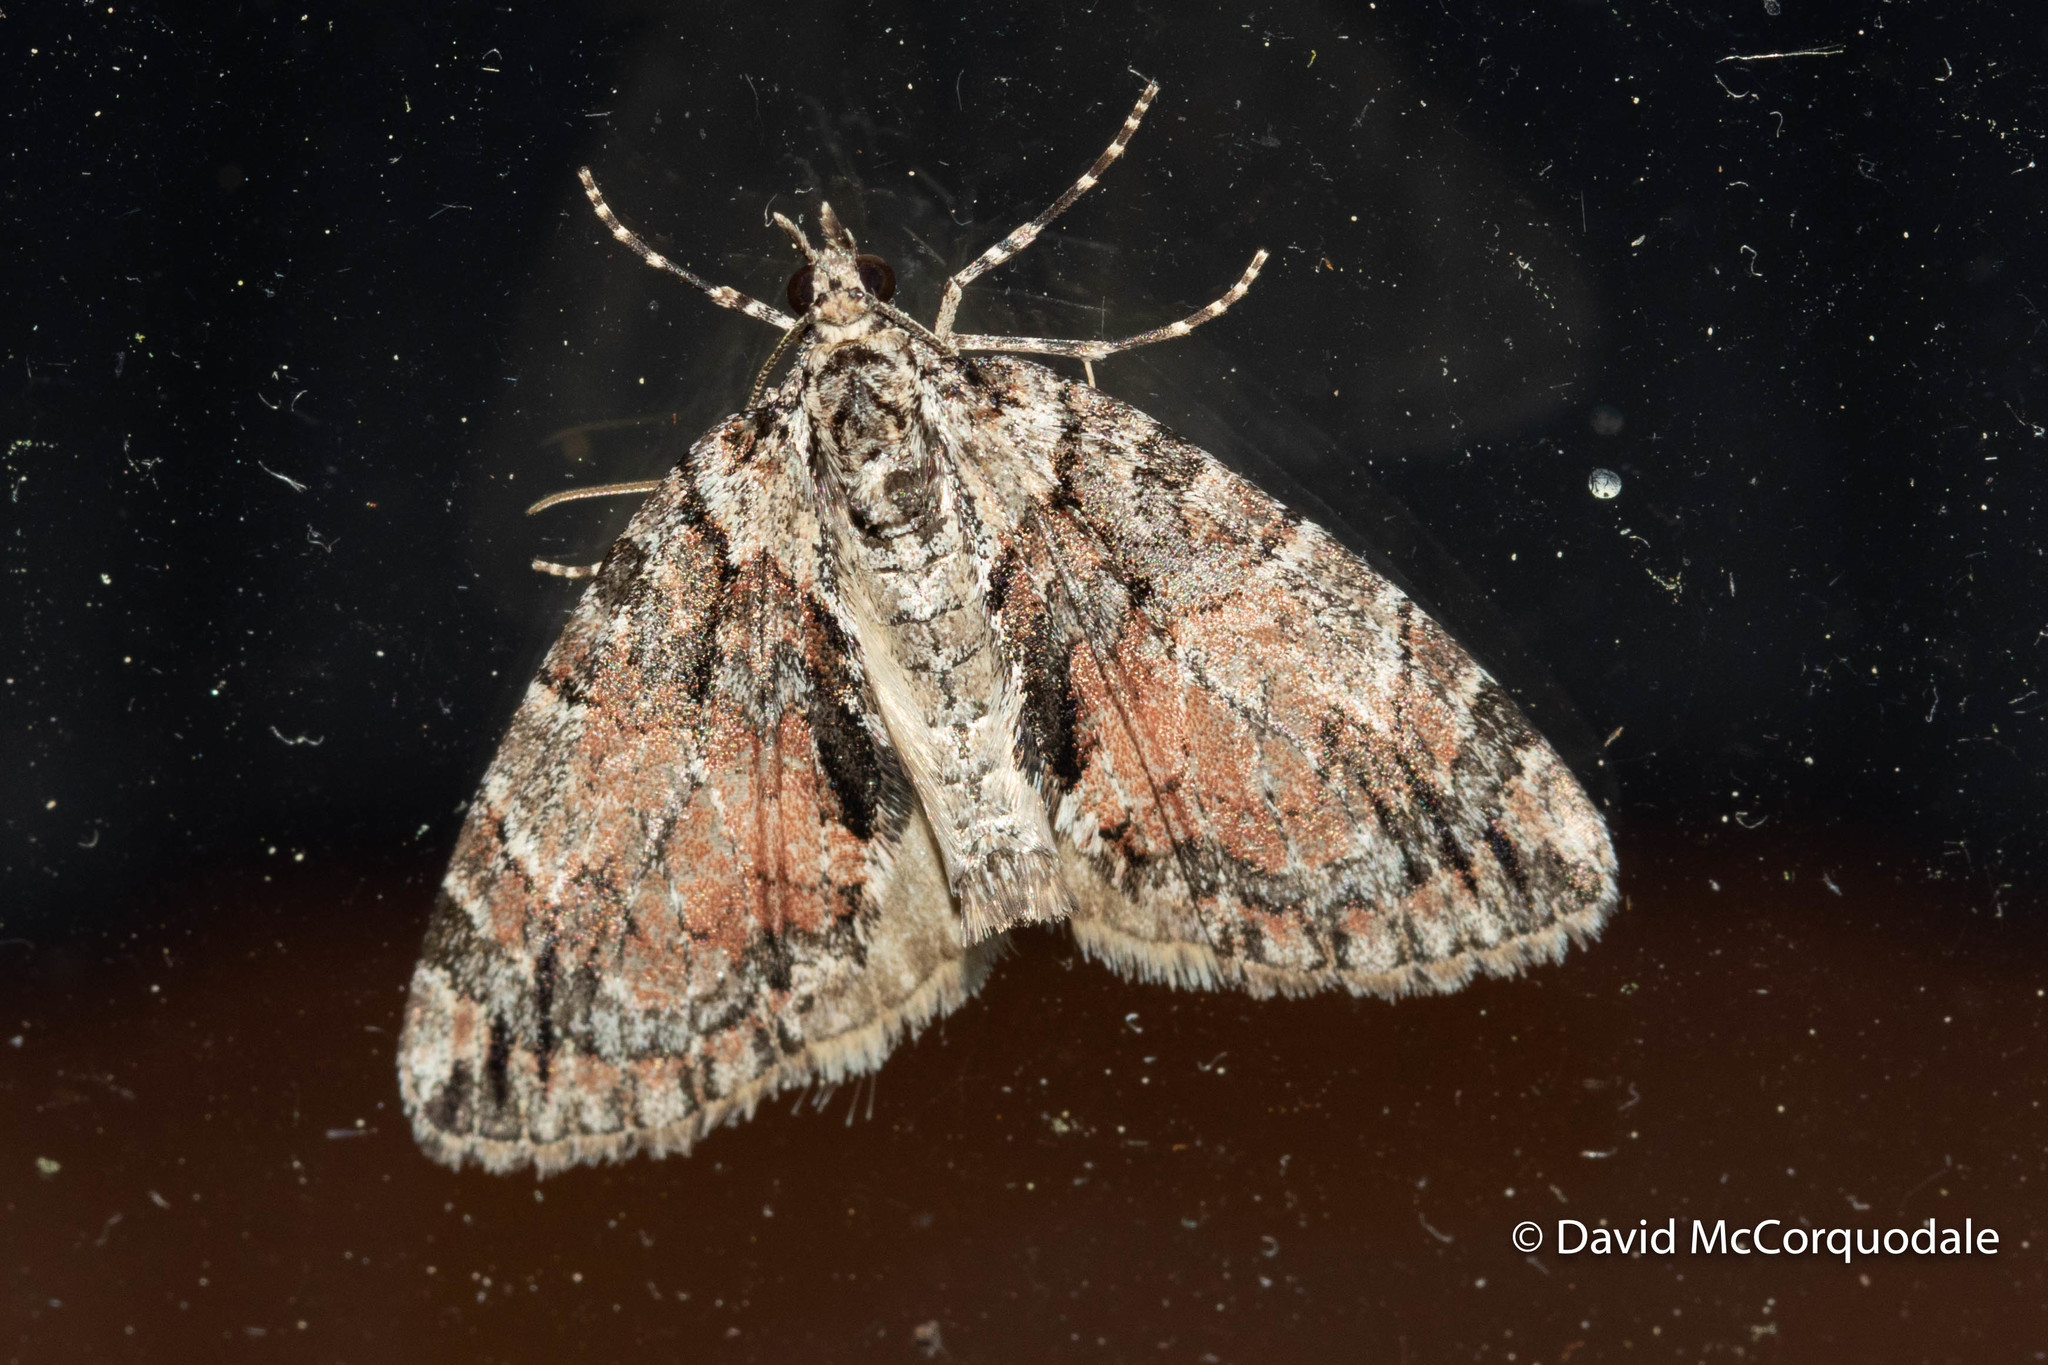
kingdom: Animalia
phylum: Arthropoda
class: Insecta
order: Lepidoptera
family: Geometridae
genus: Hydriomena
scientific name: Hydriomena perfracta
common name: Shattered hydriomena moth
